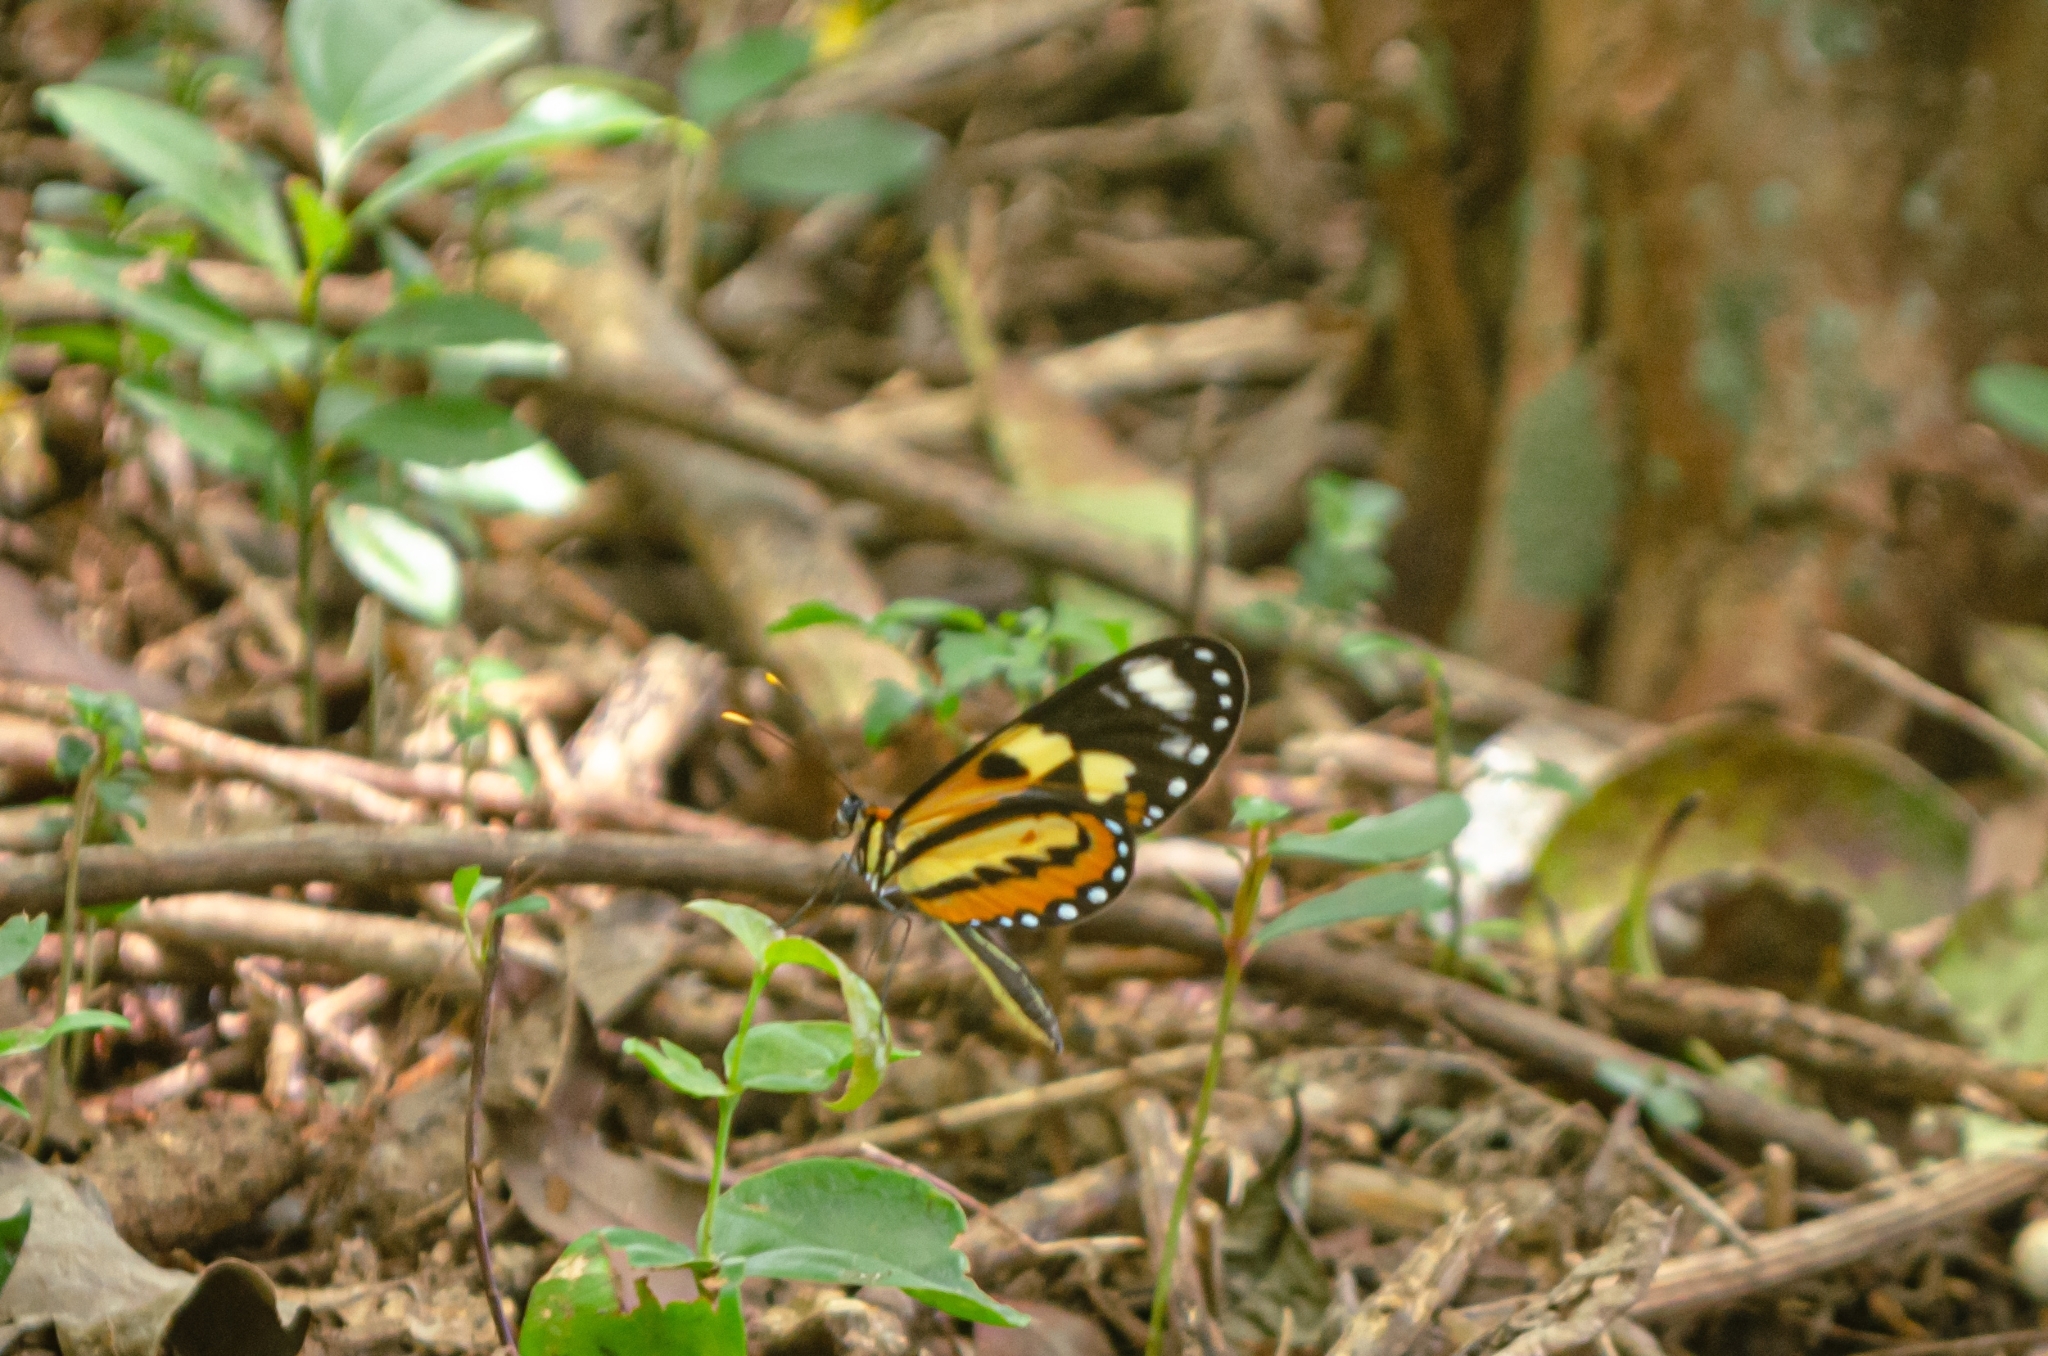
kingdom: Animalia
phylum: Arthropoda
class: Insecta
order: Lepidoptera
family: Nymphalidae
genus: Mechanitis
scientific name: Mechanitis lysimnia
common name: Lysimnia tigerwing
